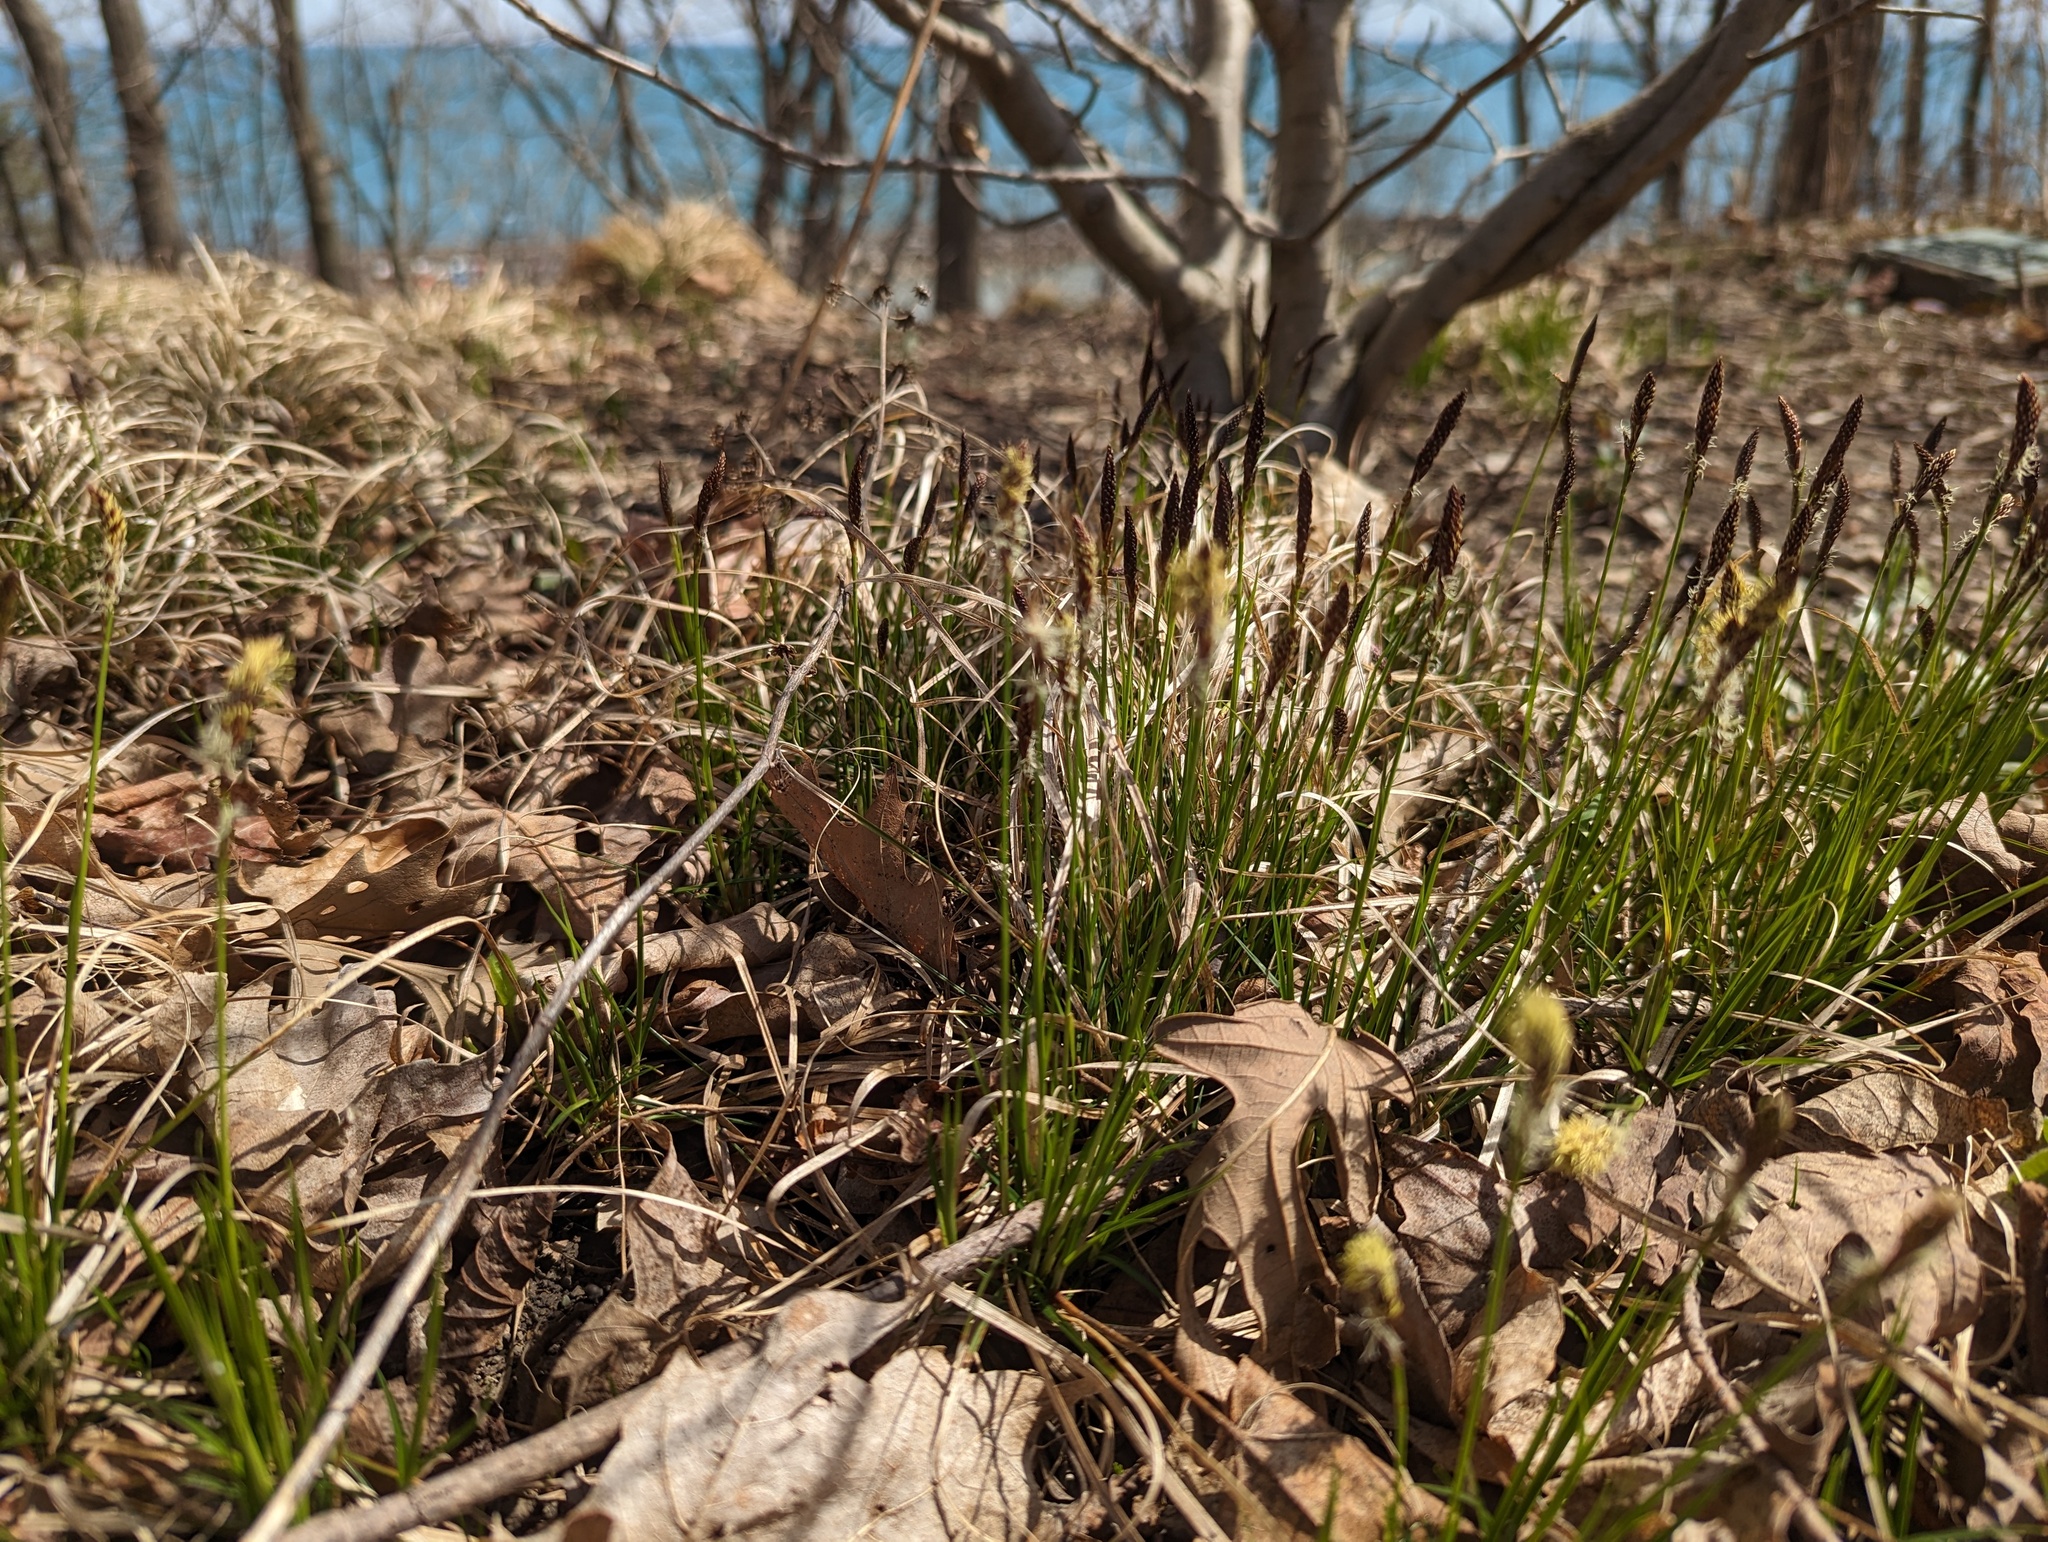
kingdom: Plantae
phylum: Tracheophyta
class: Liliopsida
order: Poales
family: Cyperaceae
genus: Carex
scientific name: Carex pensylvanica
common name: Common oak sedge
